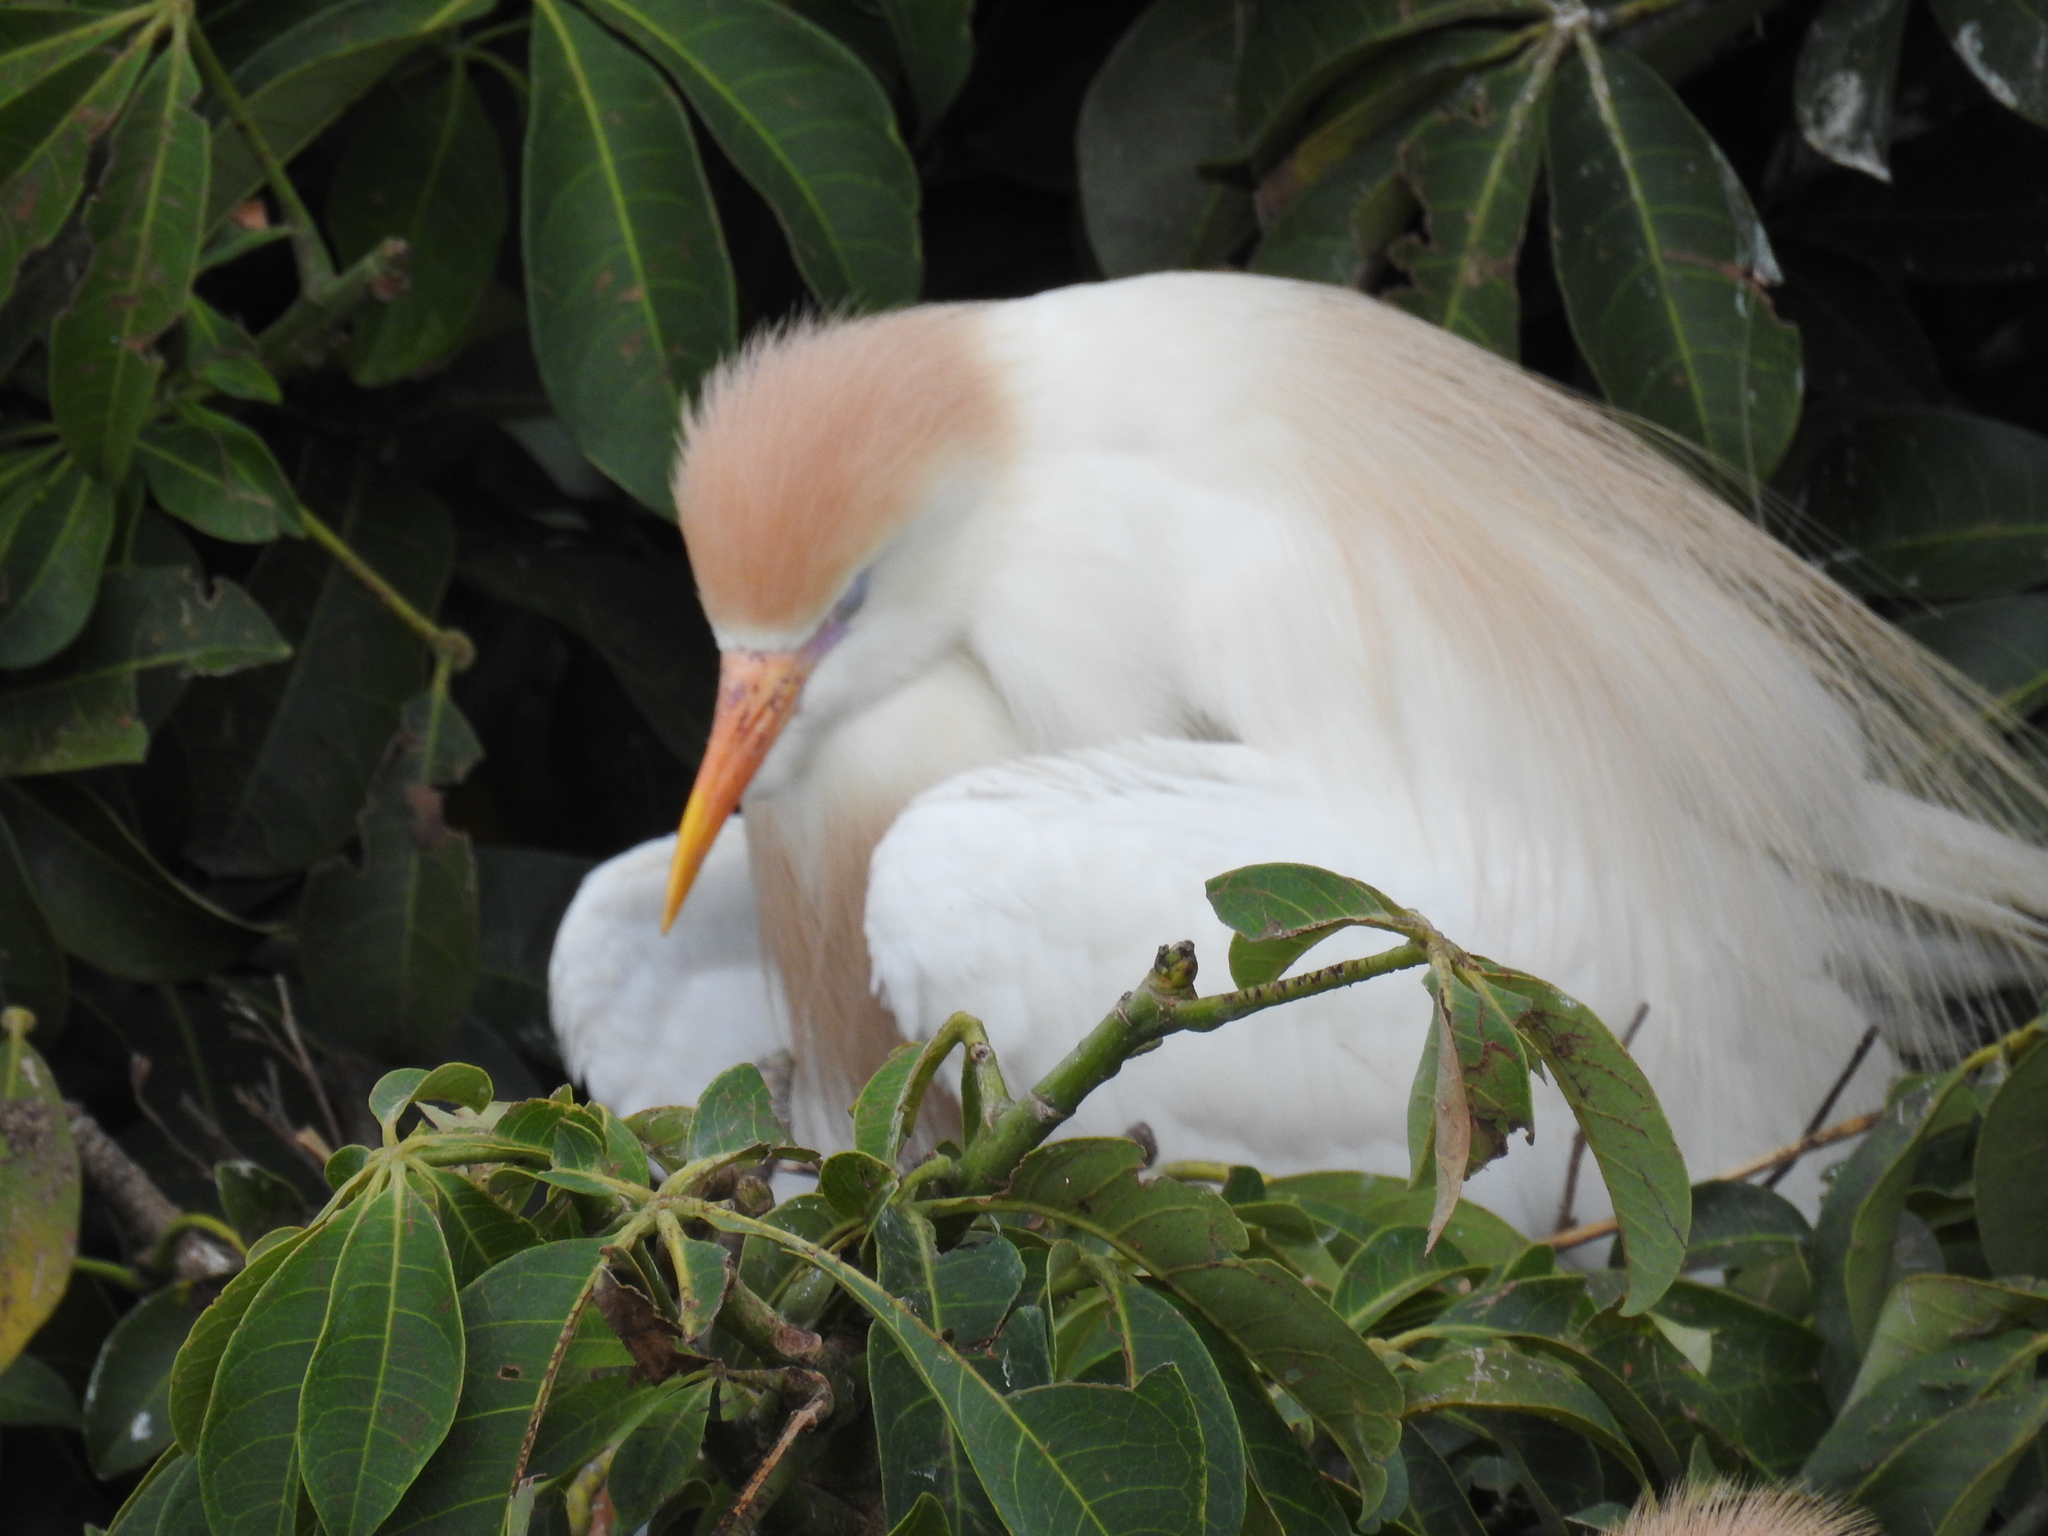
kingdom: Animalia
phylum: Chordata
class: Aves
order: Pelecaniformes
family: Ardeidae
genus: Bubulcus
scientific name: Bubulcus ibis
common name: Cattle egret
